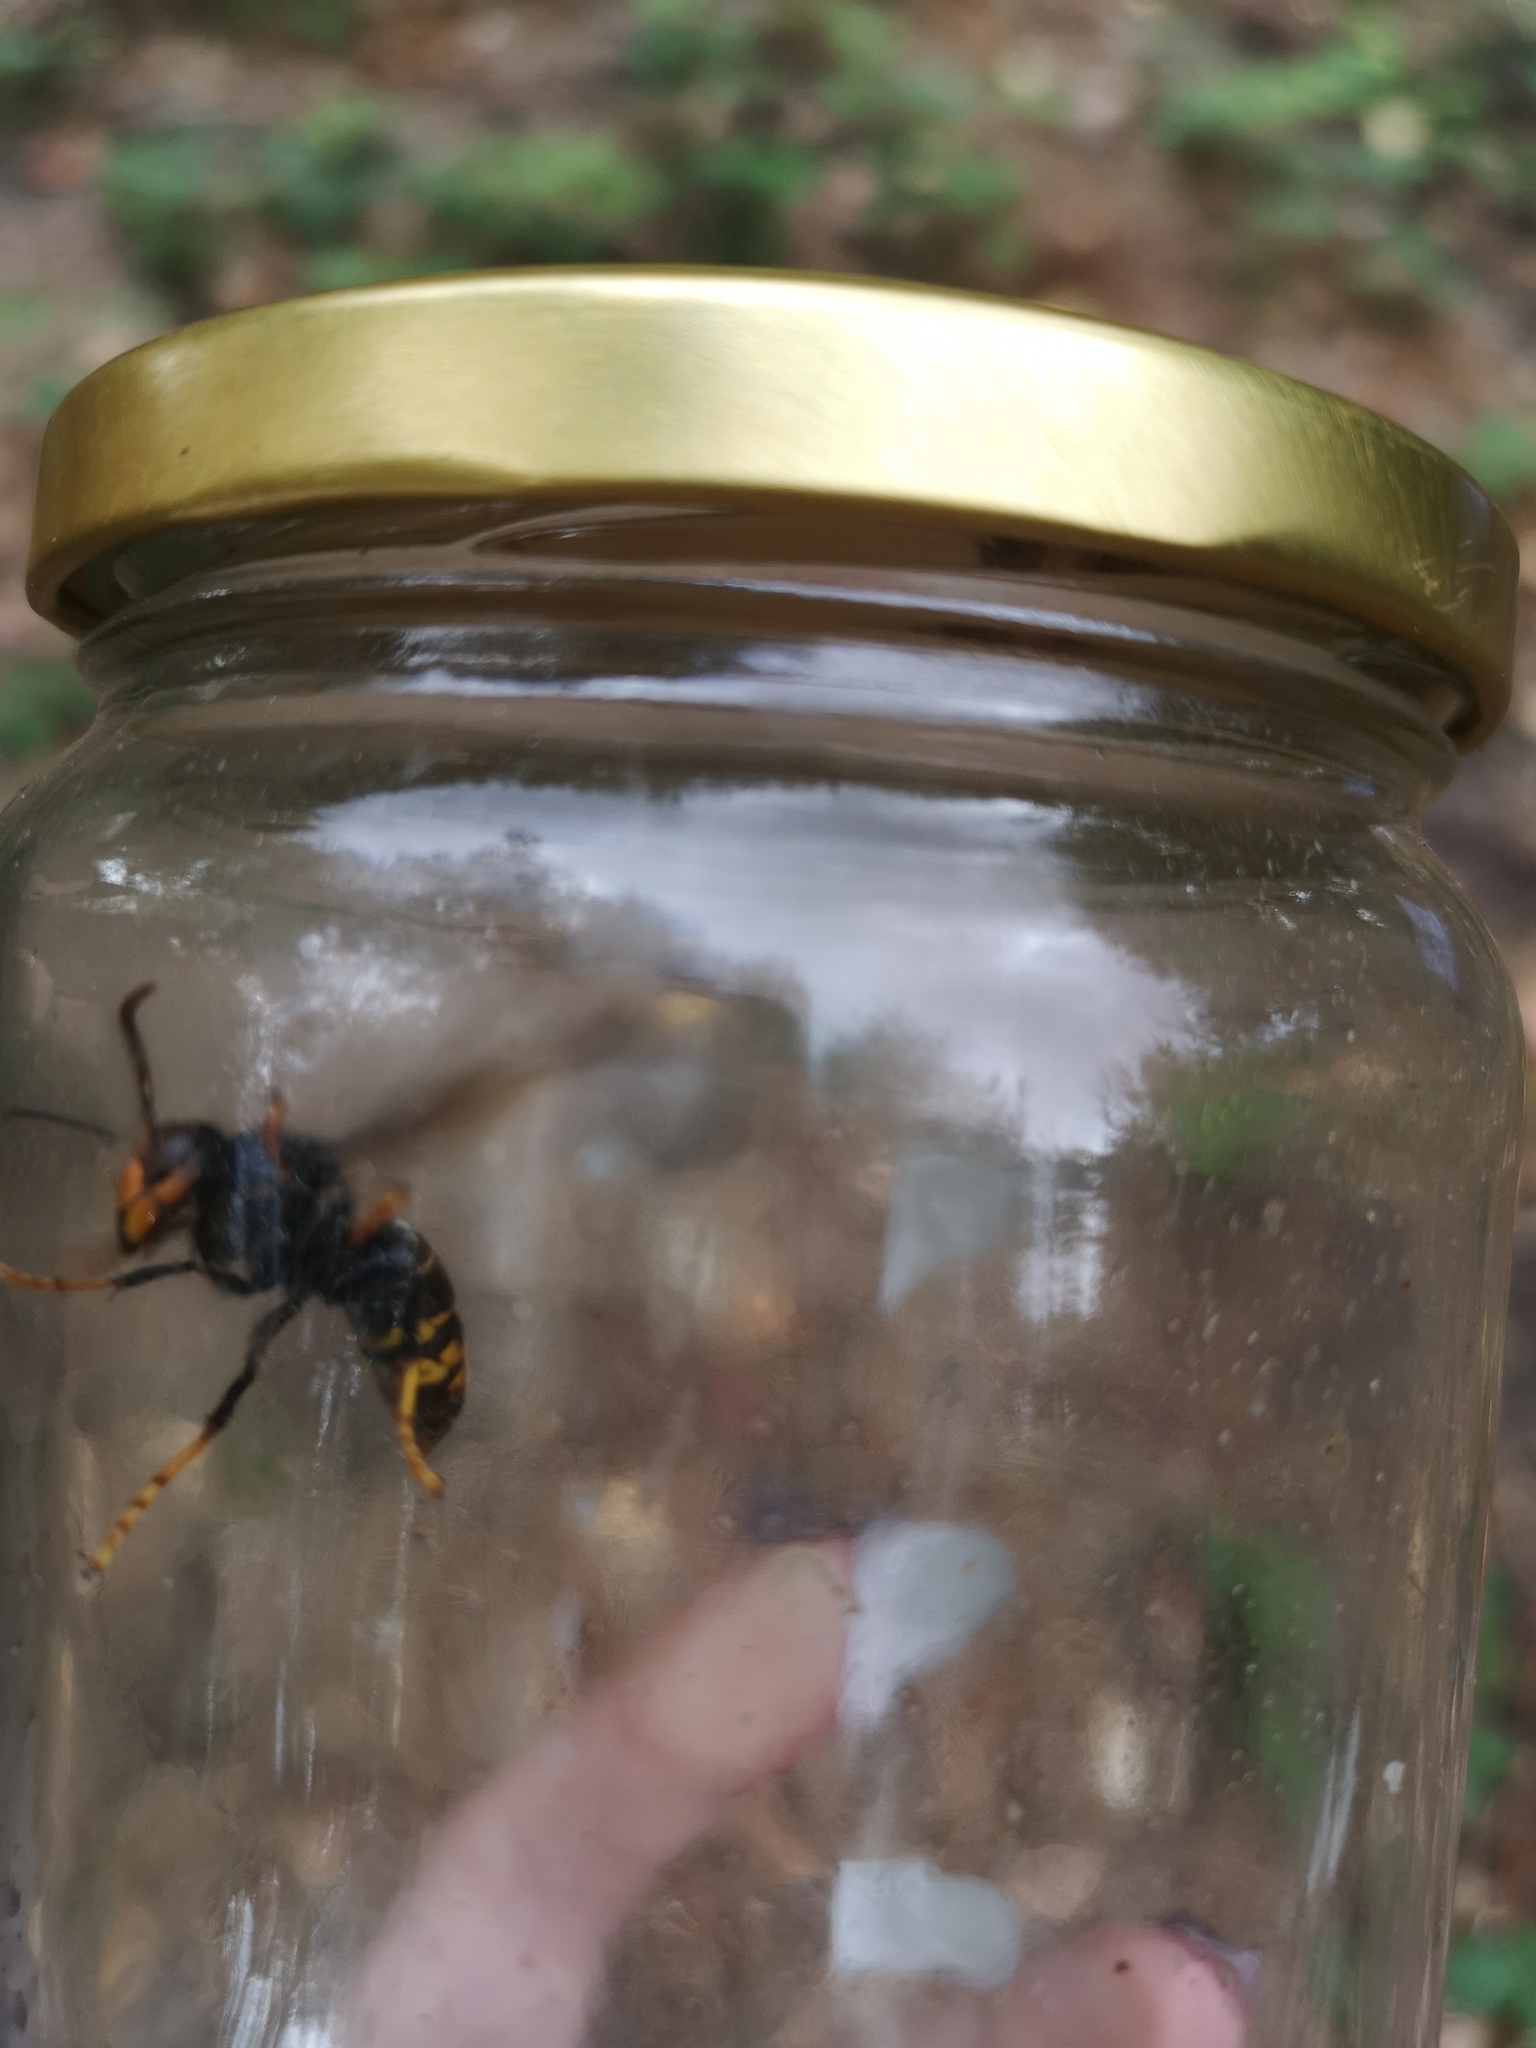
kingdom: Animalia
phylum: Arthropoda
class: Insecta
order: Hymenoptera
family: Vespidae
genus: Vespa
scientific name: Vespa velutina
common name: Asian hornet
